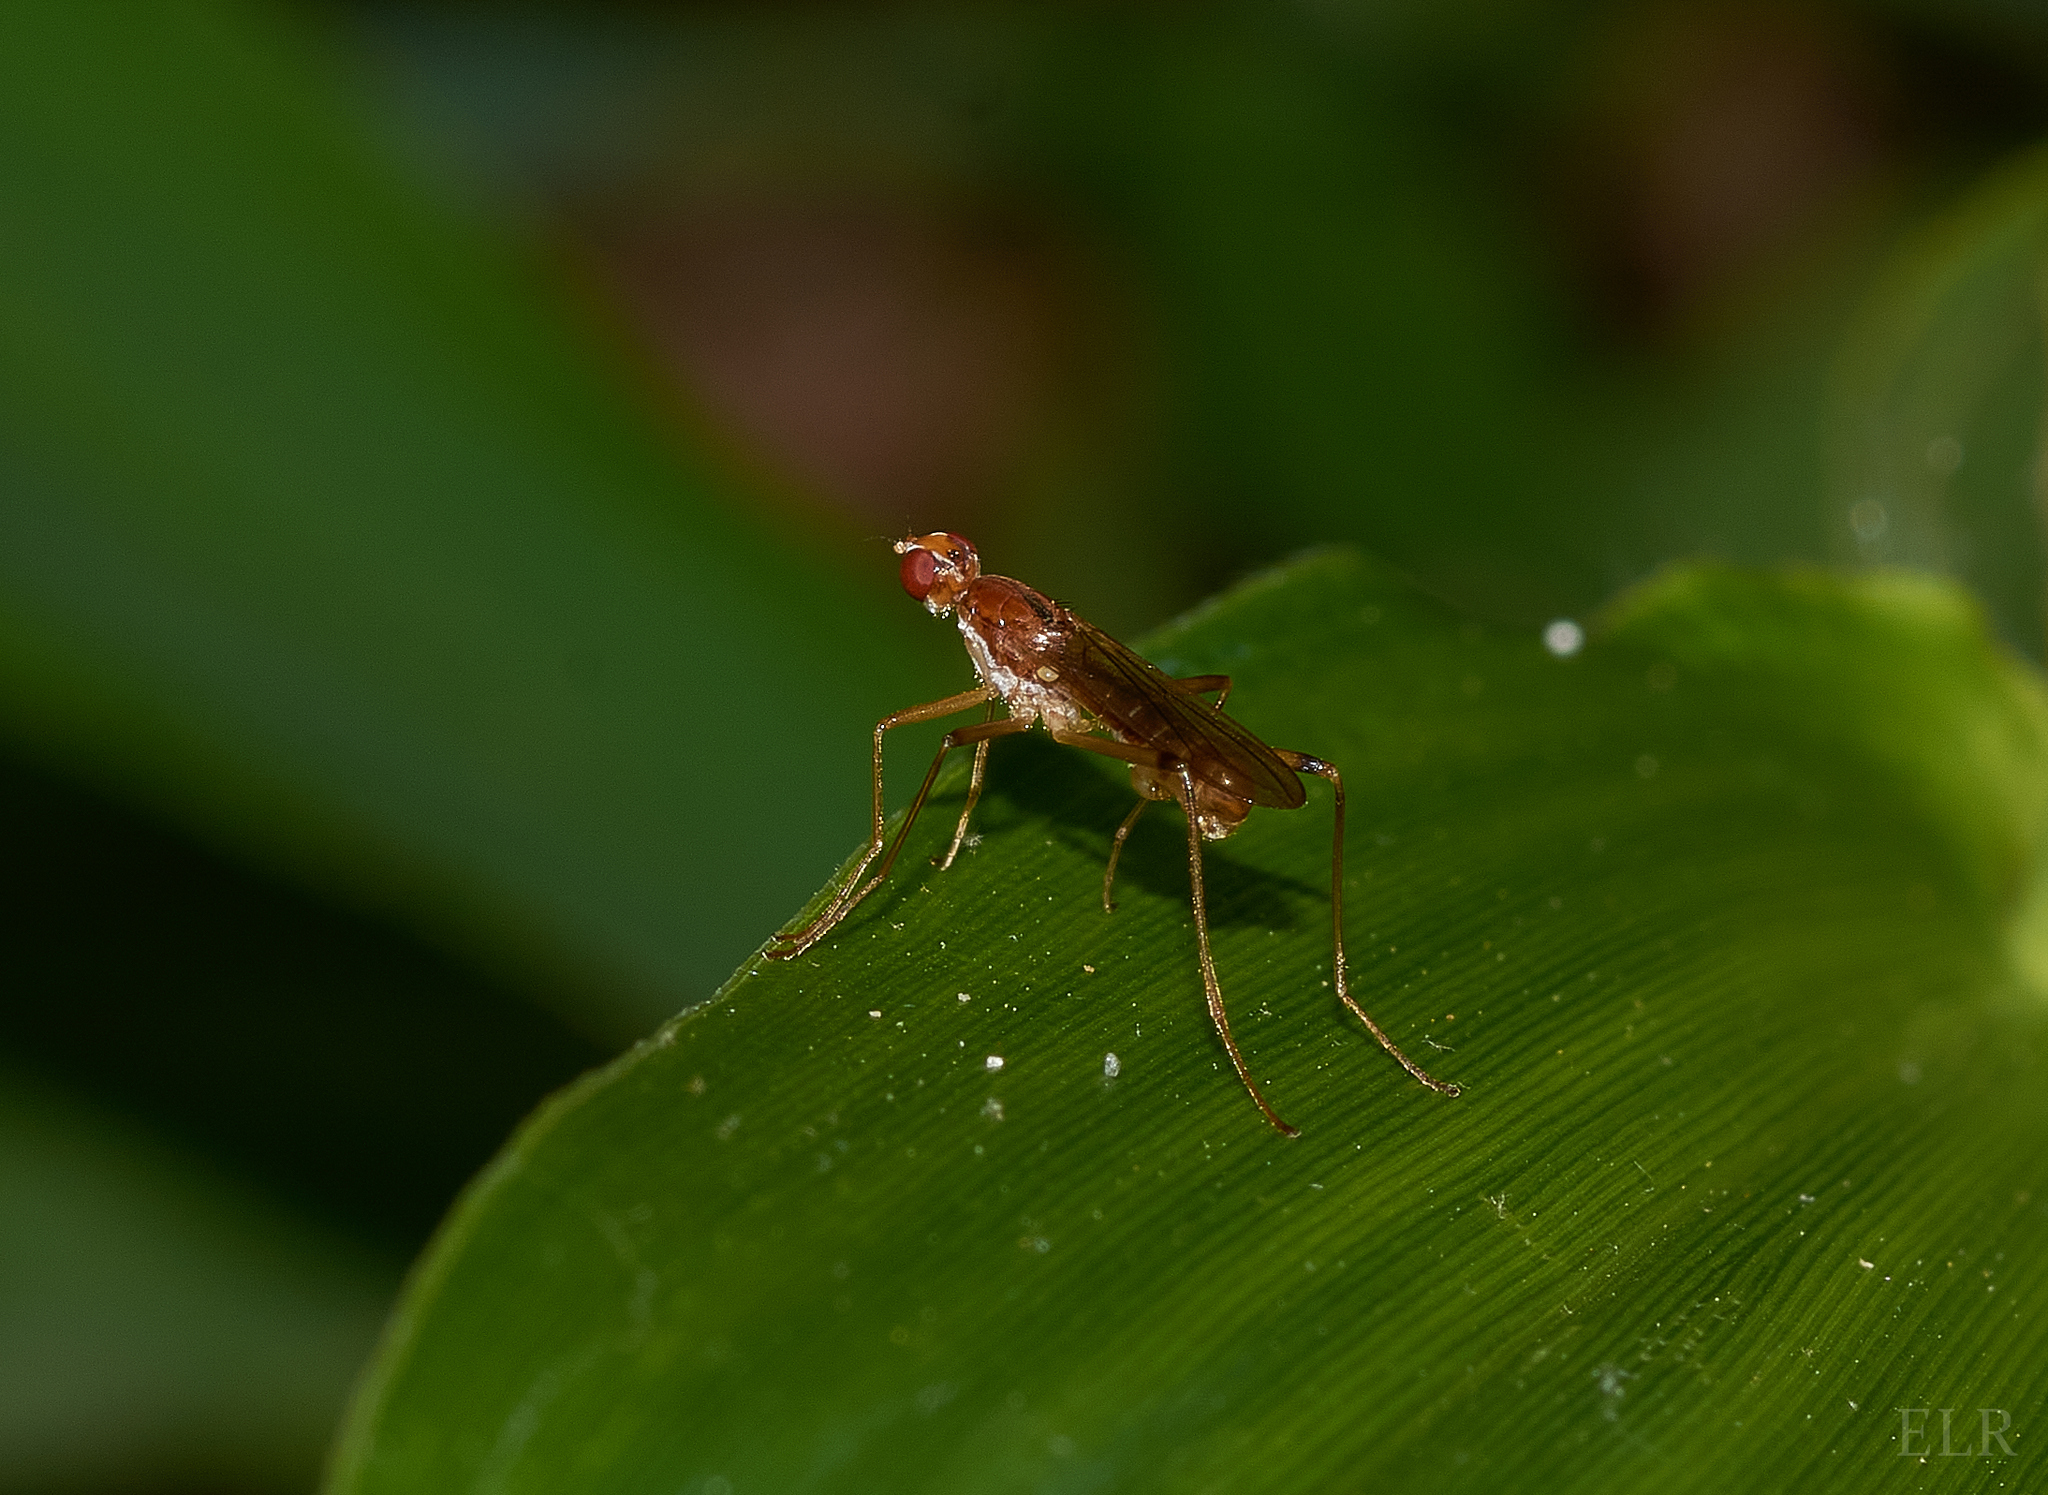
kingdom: Animalia
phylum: Arthropoda
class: Insecta
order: Diptera
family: Micropezidae
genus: Compsobata
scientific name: Compsobata univitta
